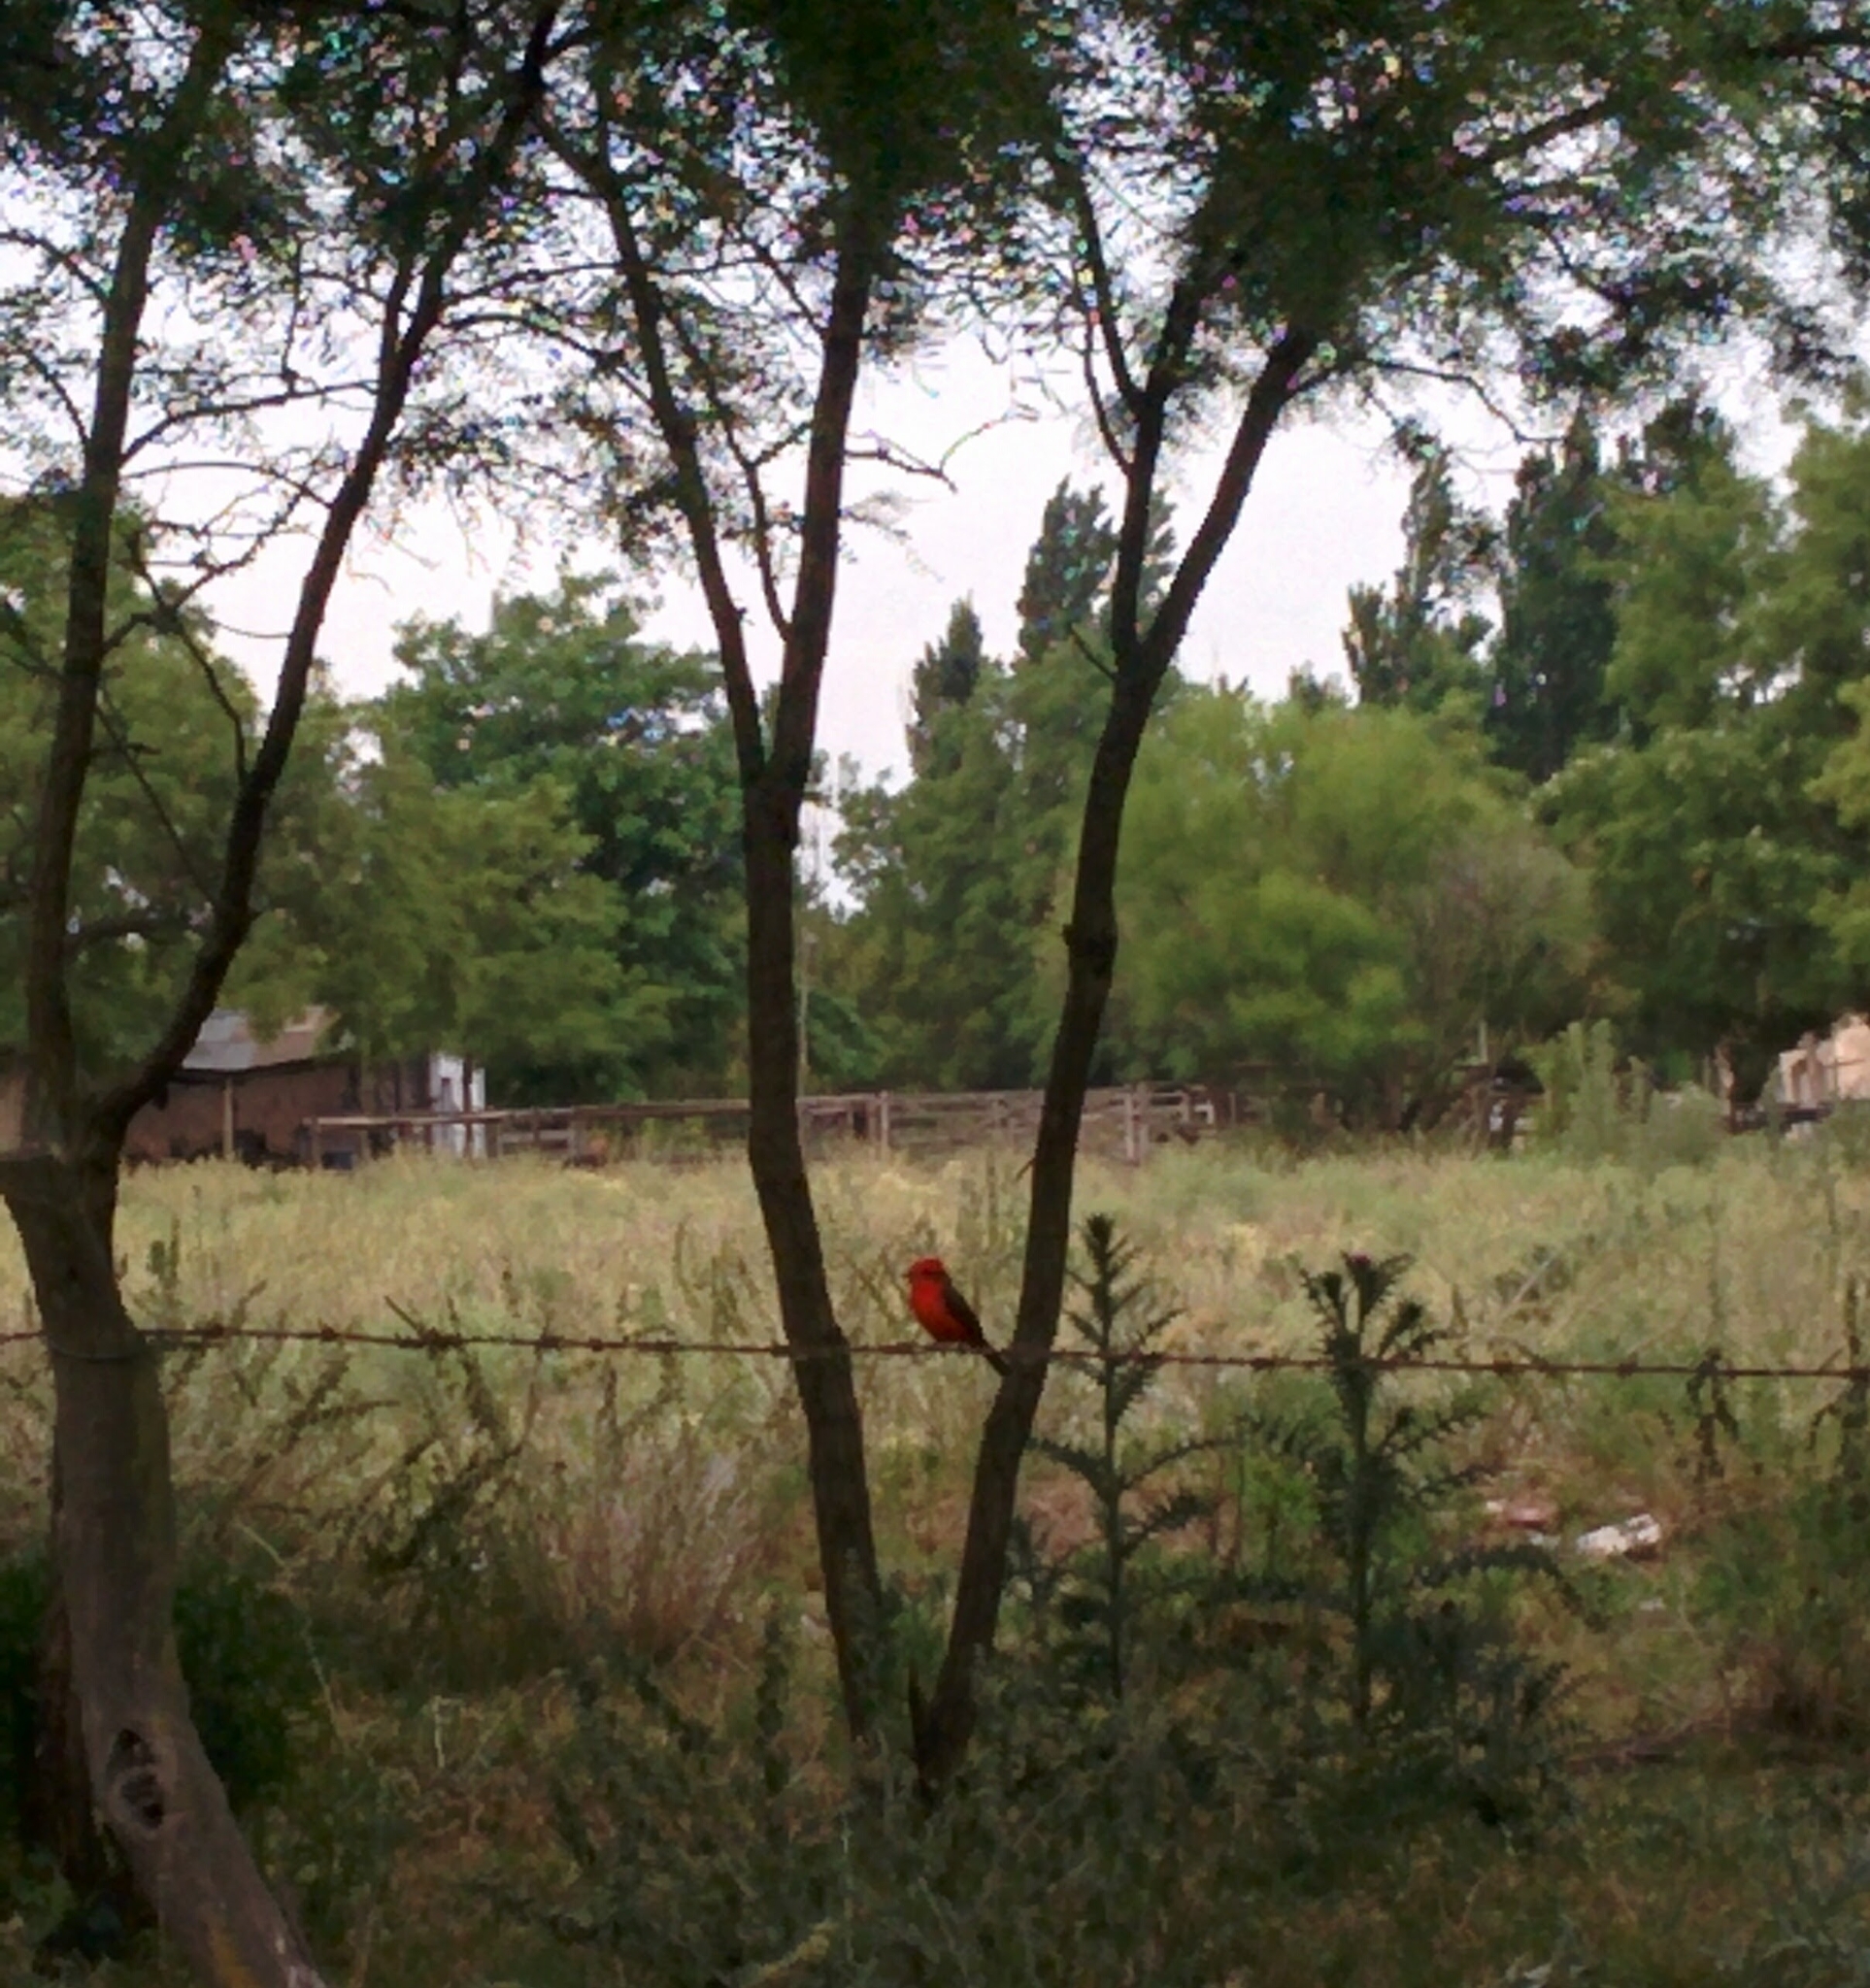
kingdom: Animalia
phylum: Chordata
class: Aves
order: Passeriformes
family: Tyrannidae
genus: Pyrocephalus
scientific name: Pyrocephalus rubinus
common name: Vermilion flycatcher
